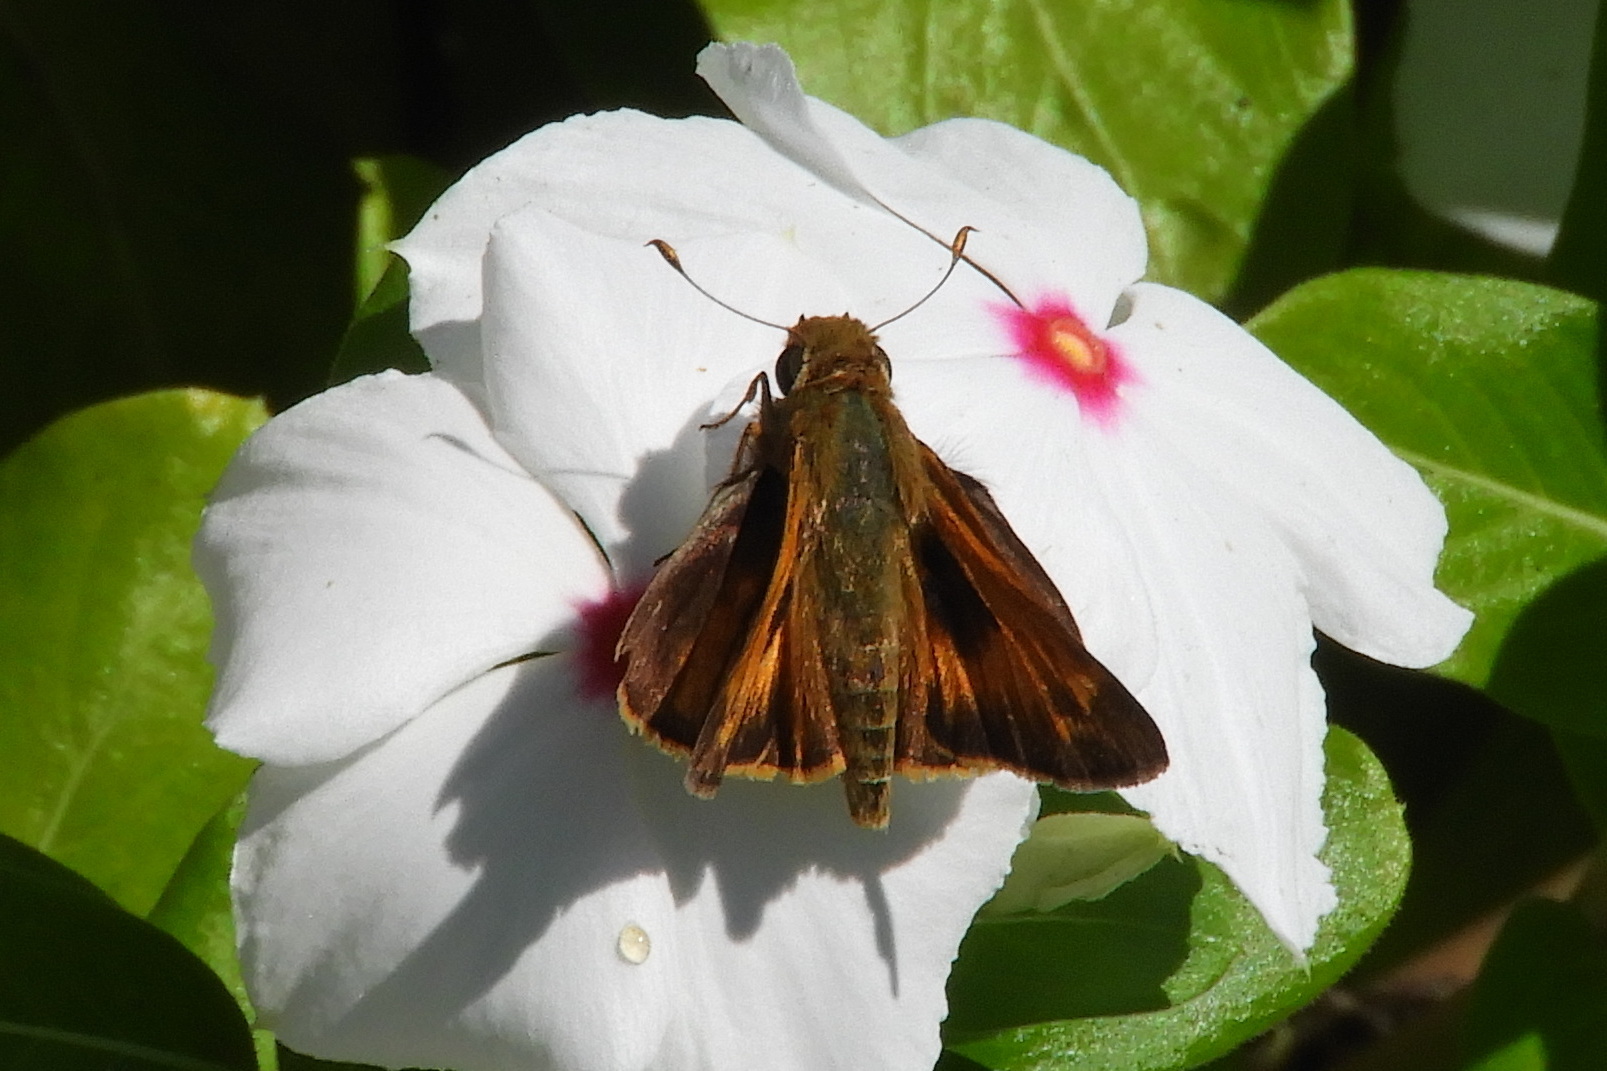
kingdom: Animalia
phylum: Arthropoda
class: Insecta
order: Lepidoptera
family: Hesperiidae
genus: Atalopedes
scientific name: Atalopedes
